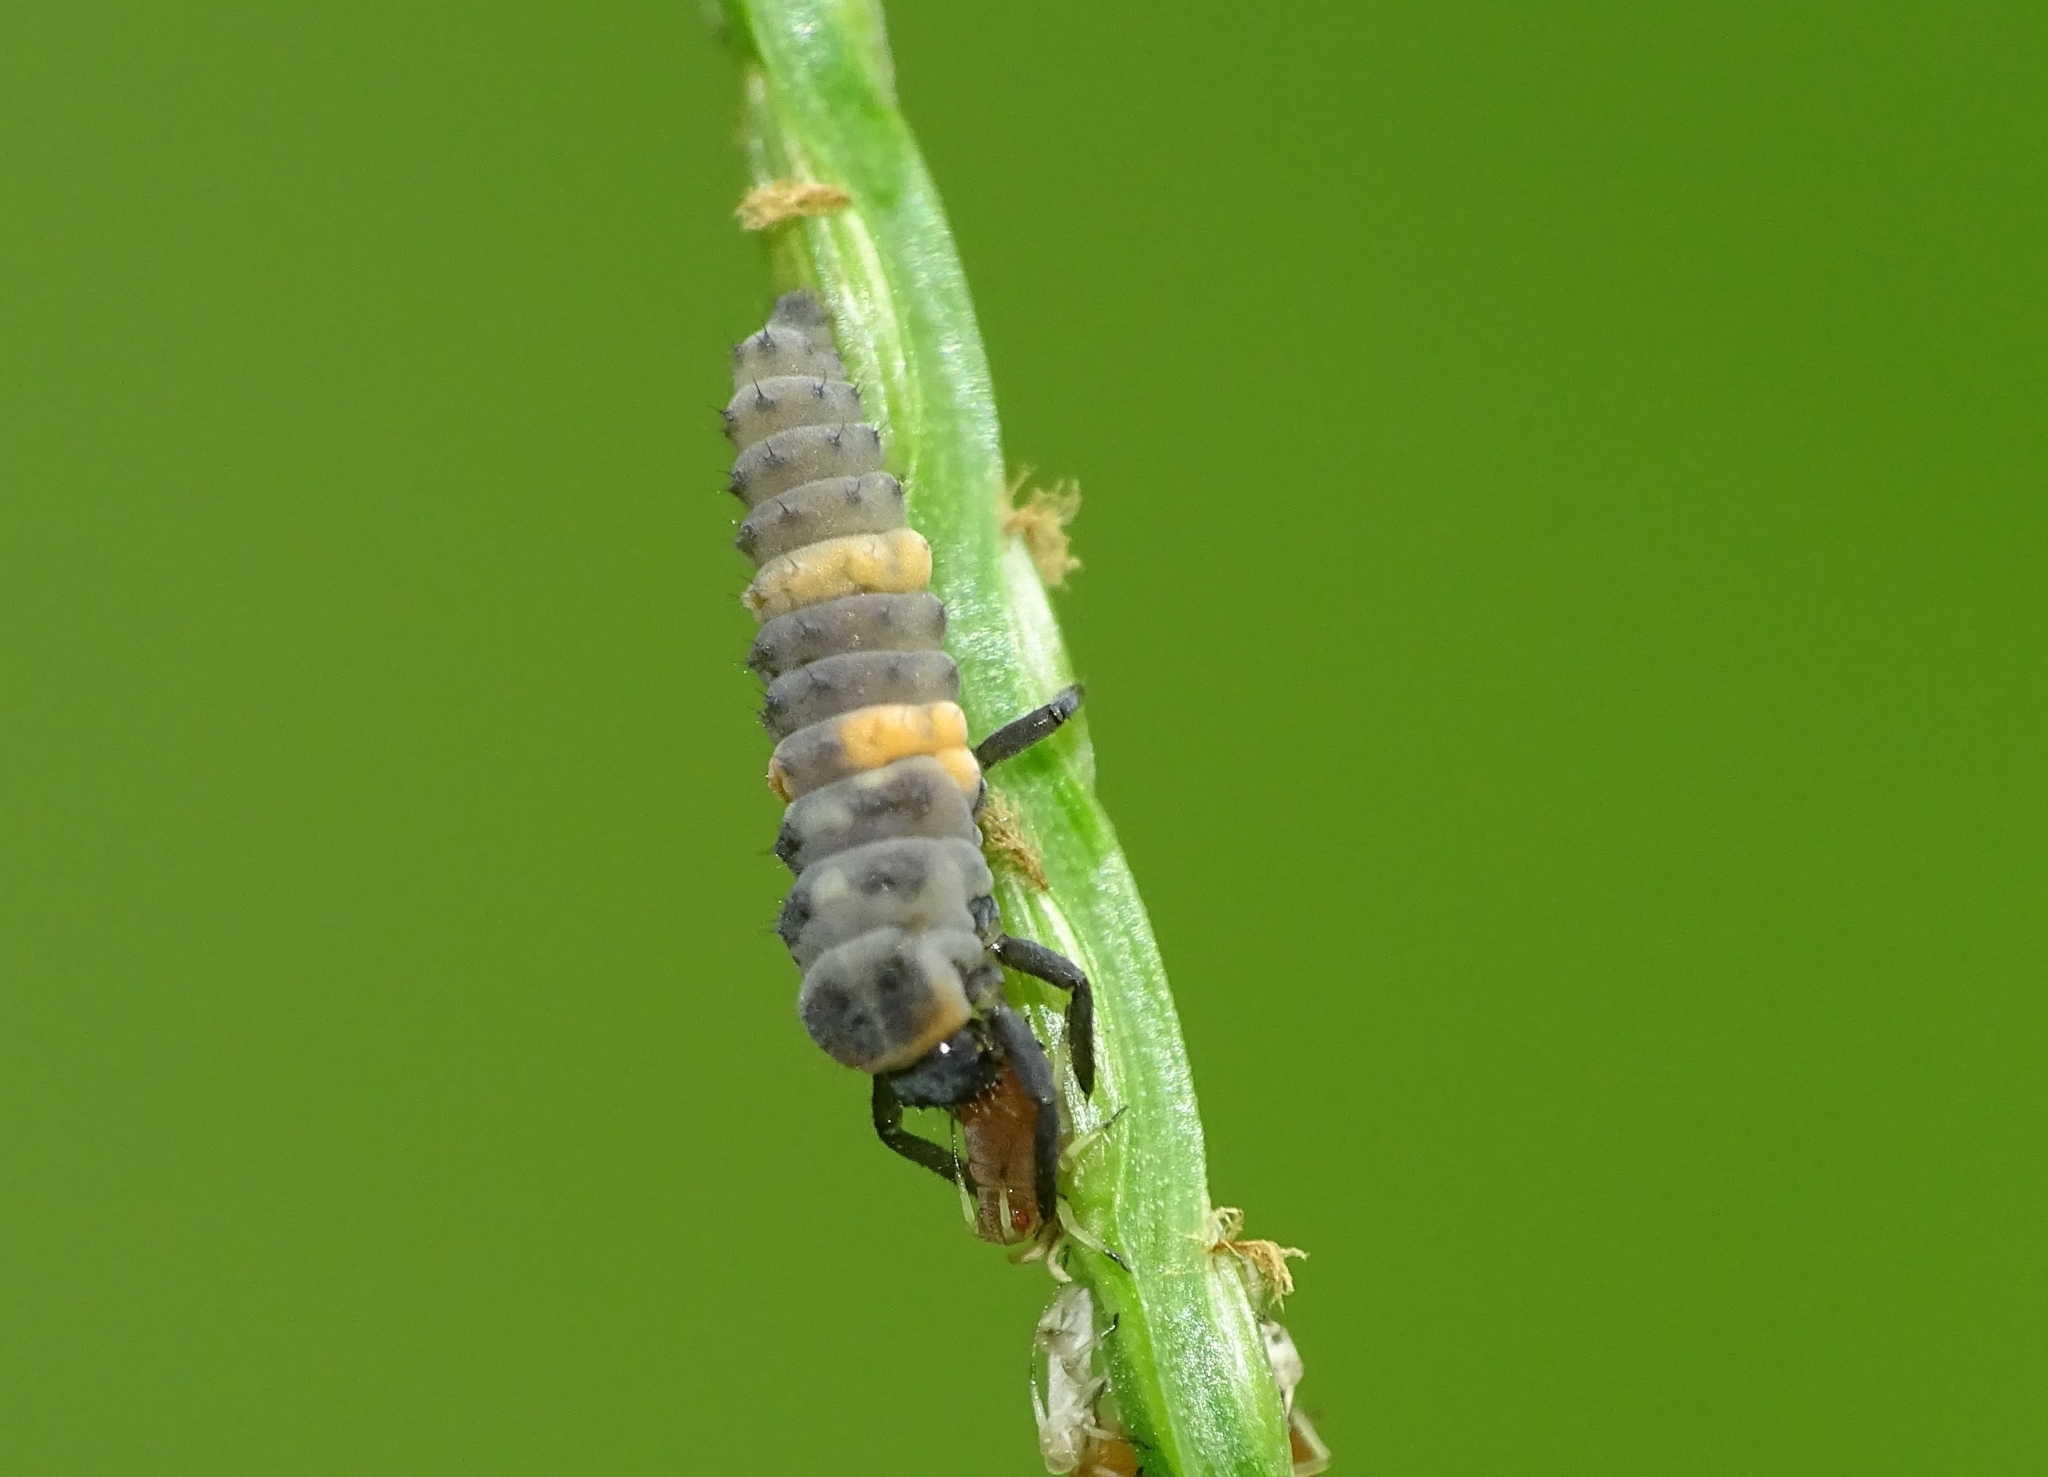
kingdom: Animalia
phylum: Arthropoda
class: Insecta
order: Coleoptera
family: Coccinellidae
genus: Coccinella
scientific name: Coccinella transversalis
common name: Transverse lady beetle
